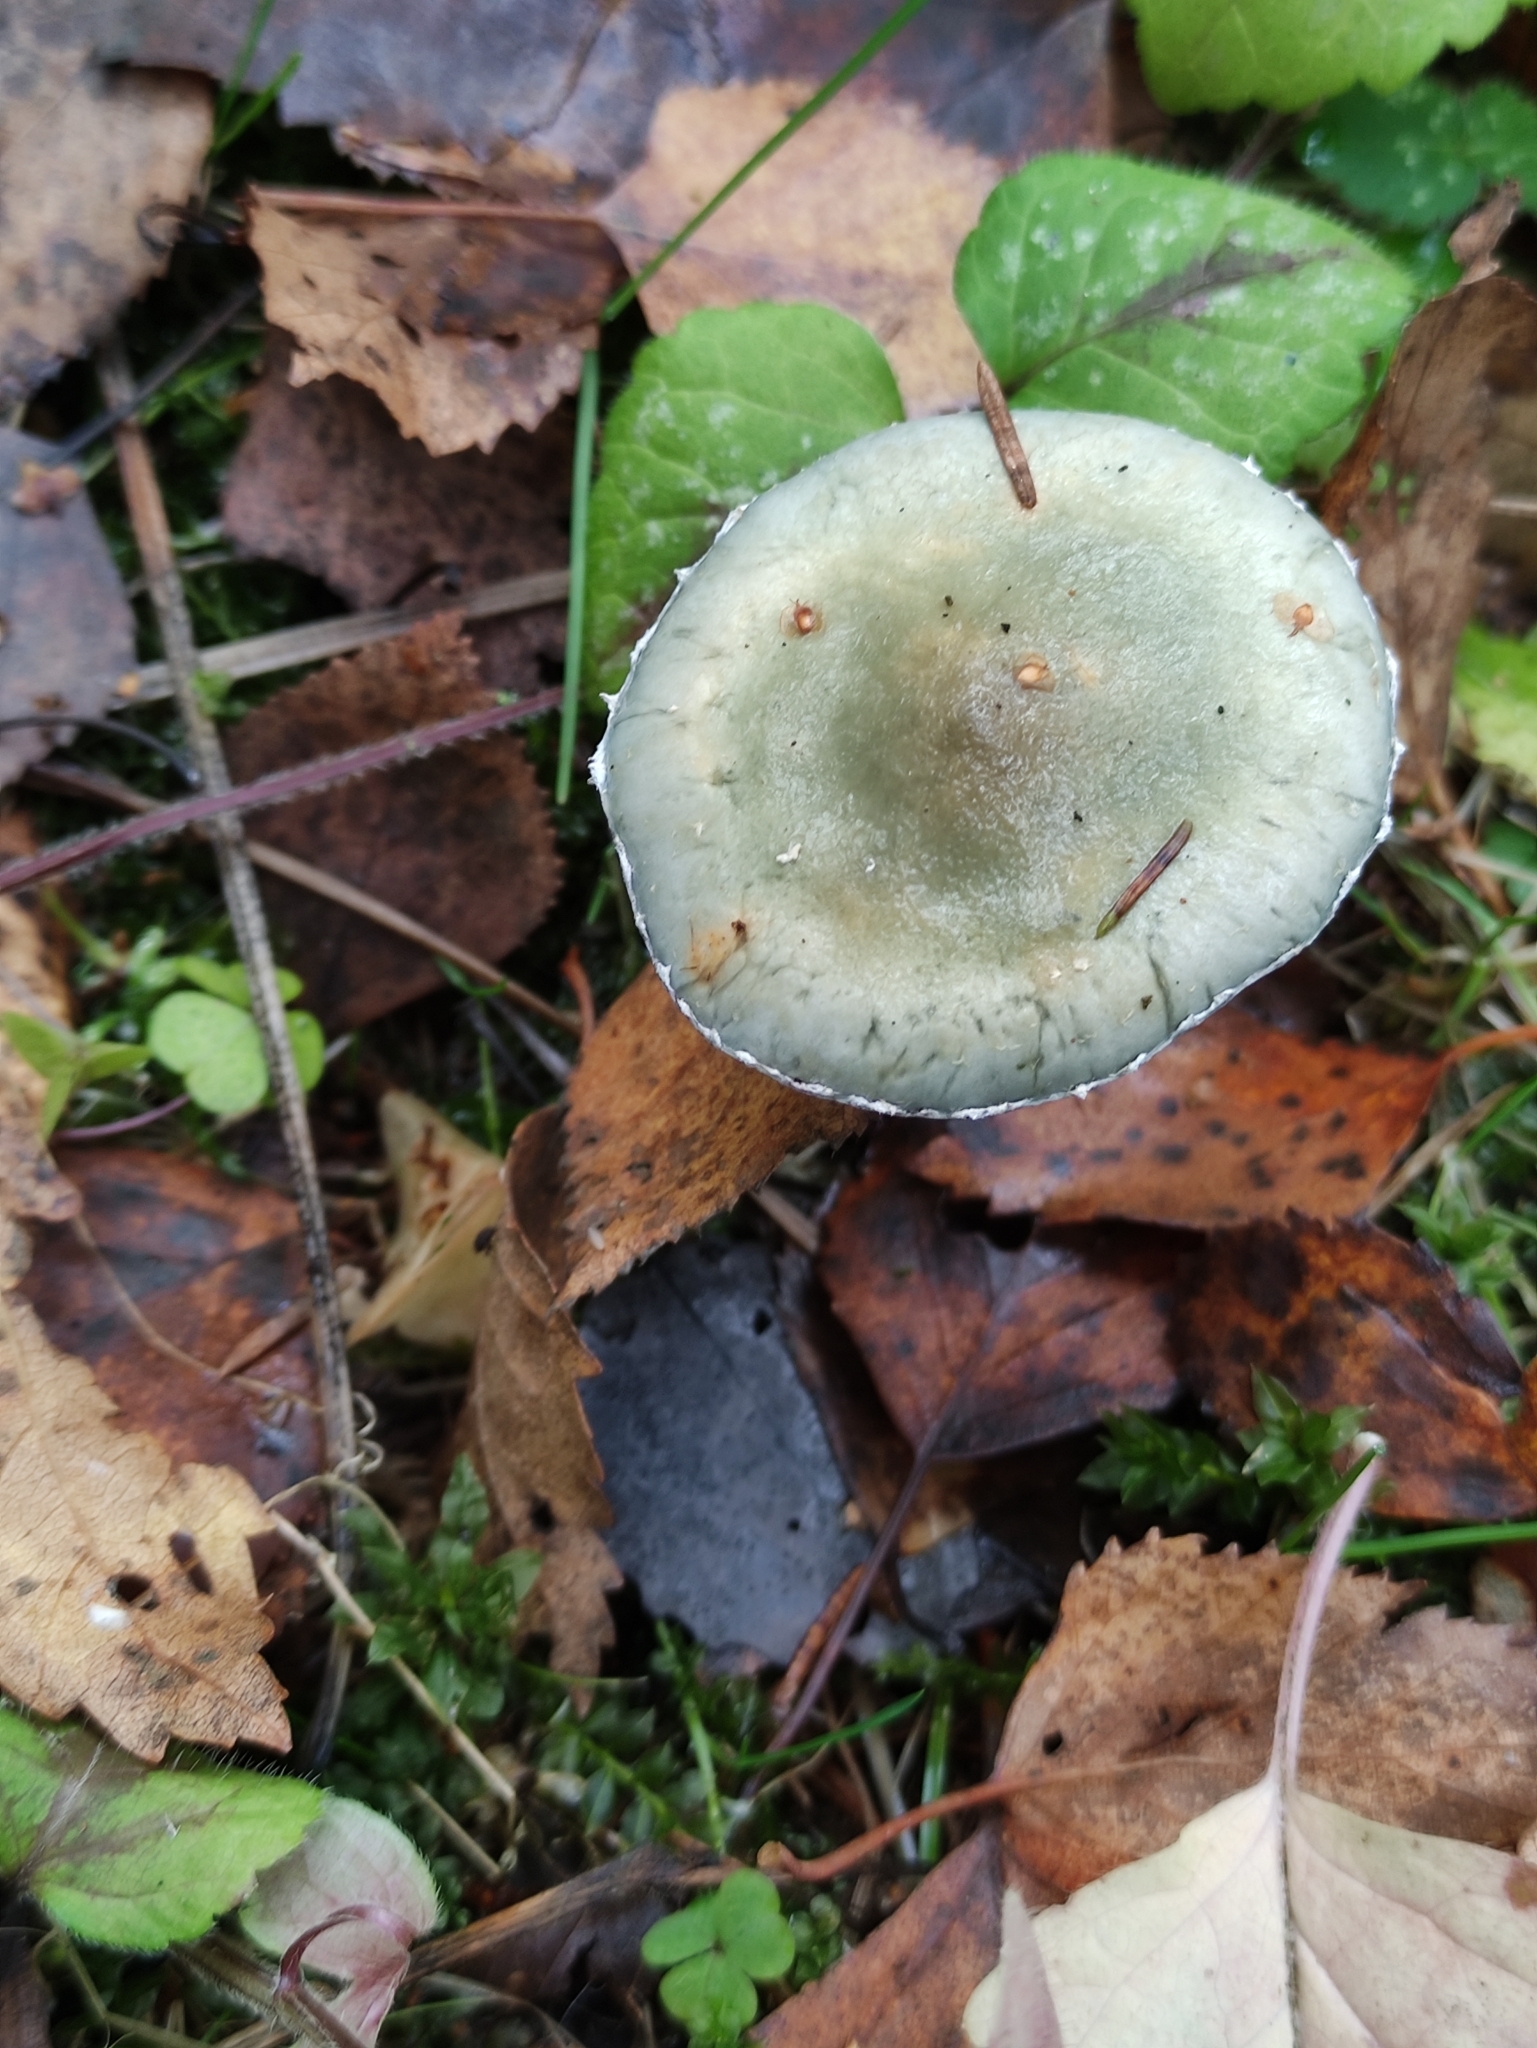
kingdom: Fungi
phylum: Basidiomycota
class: Agaricomycetes
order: Agaricales
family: Strophariaceae
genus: Stropharia
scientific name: Stropharia aeruginosa
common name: Verdigris roundhead
